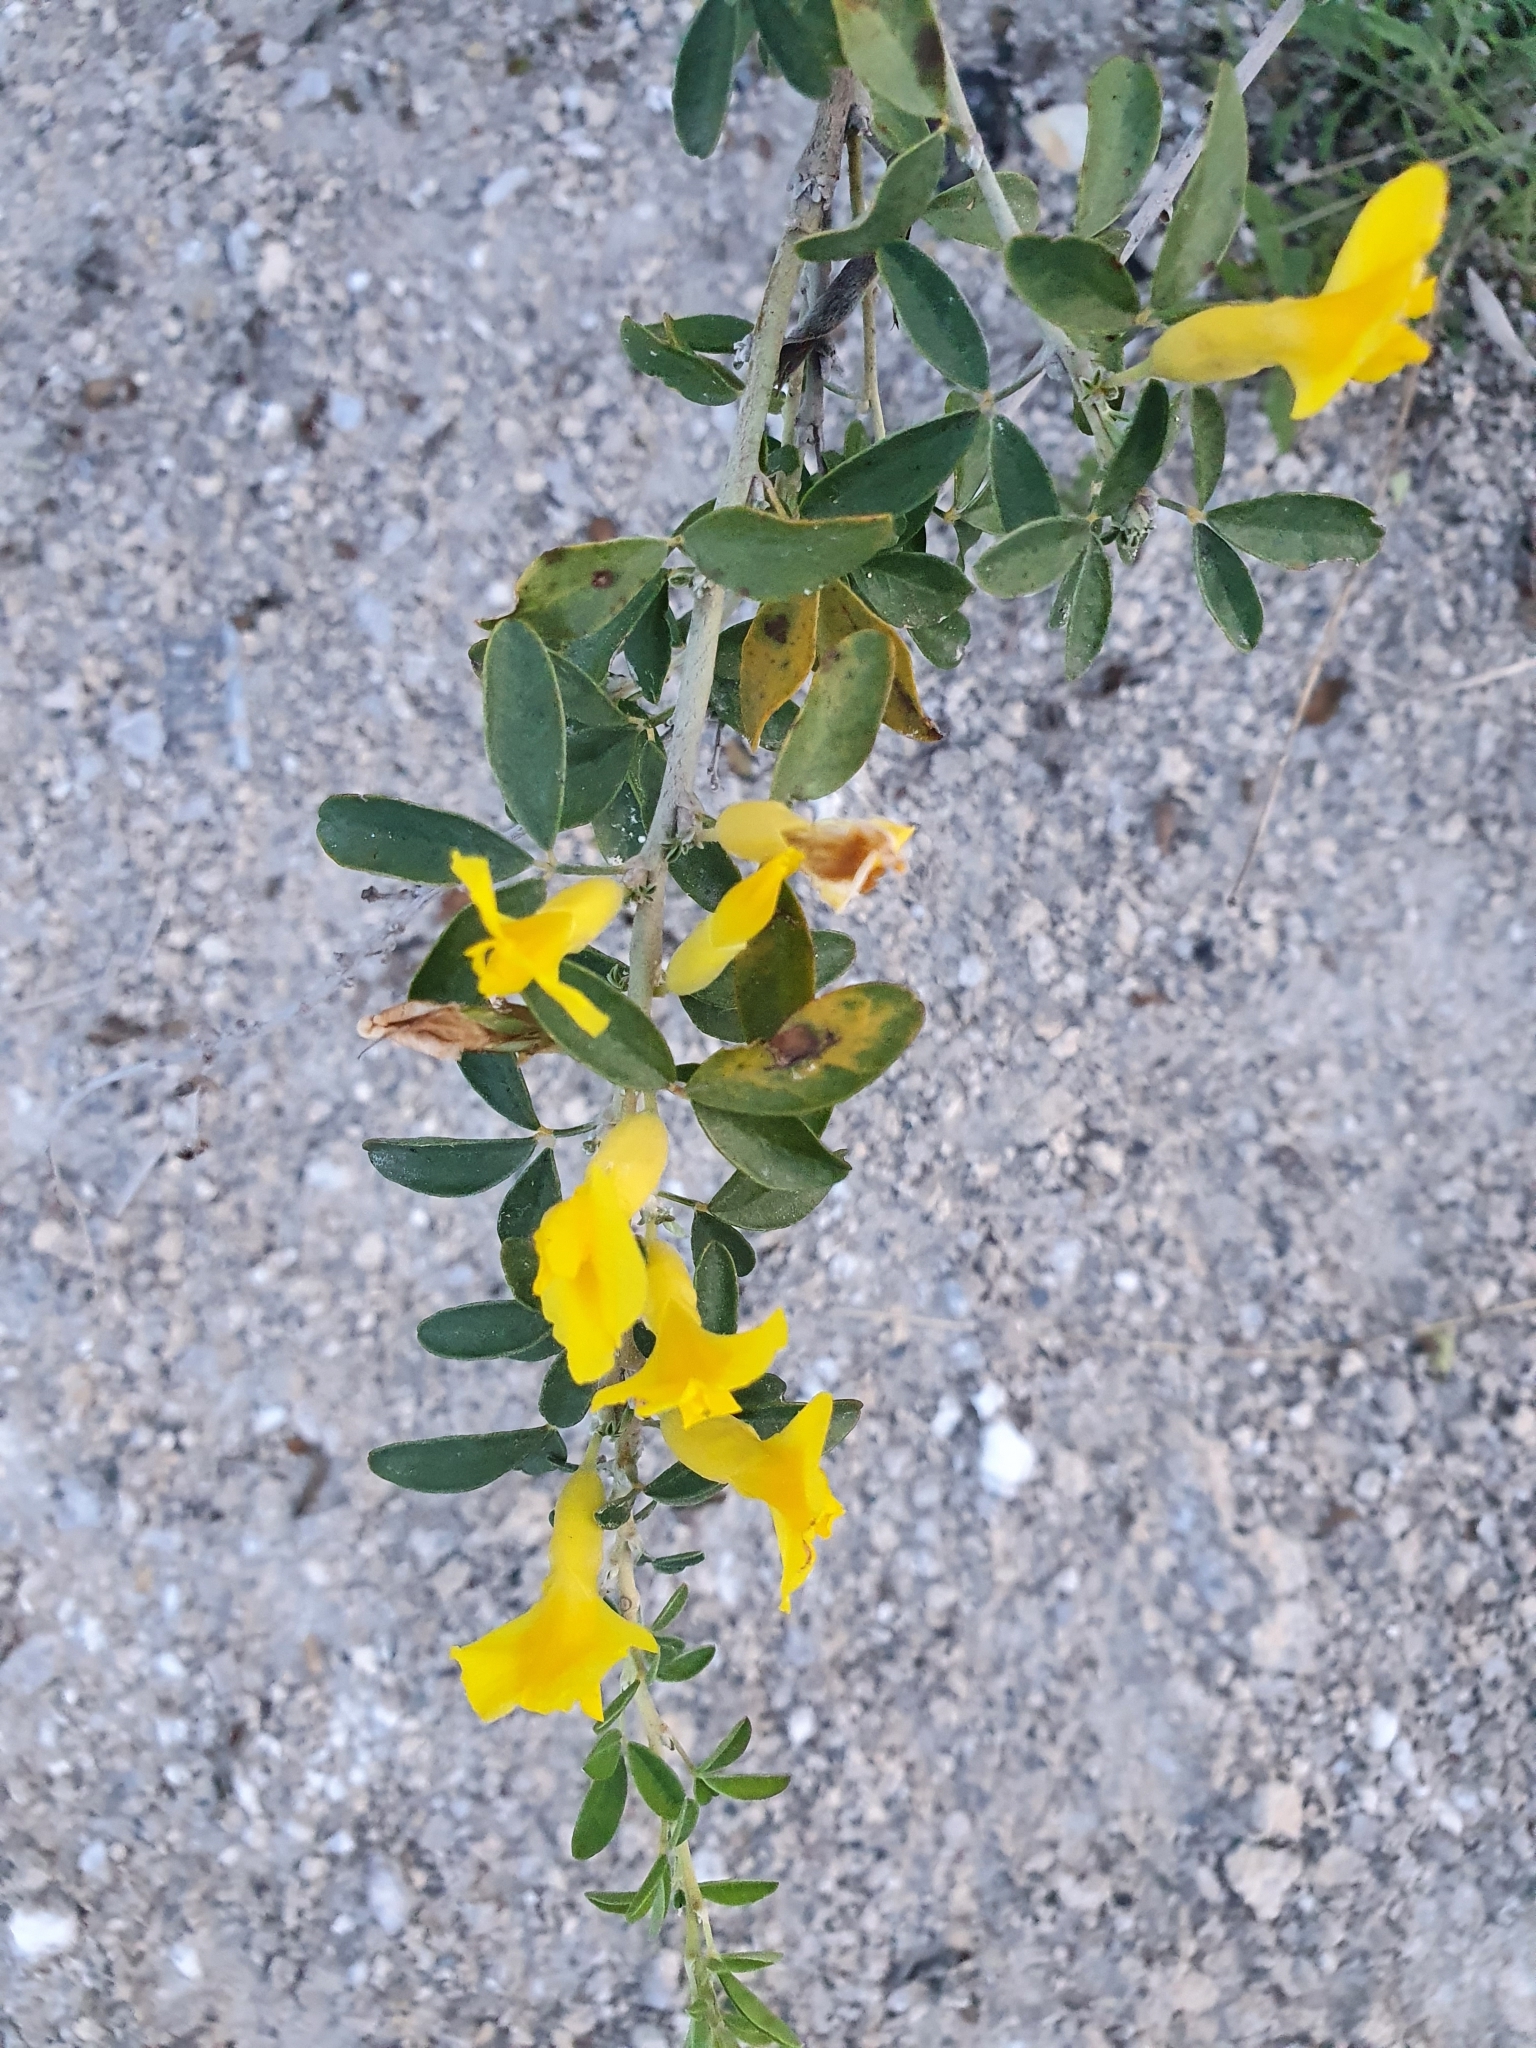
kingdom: Plantae
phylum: Tracheophyta
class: Magnoliopsida
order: Fabales
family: Fabaceae
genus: Chamaecytisus
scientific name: Chamaecytisus ruthenicus
